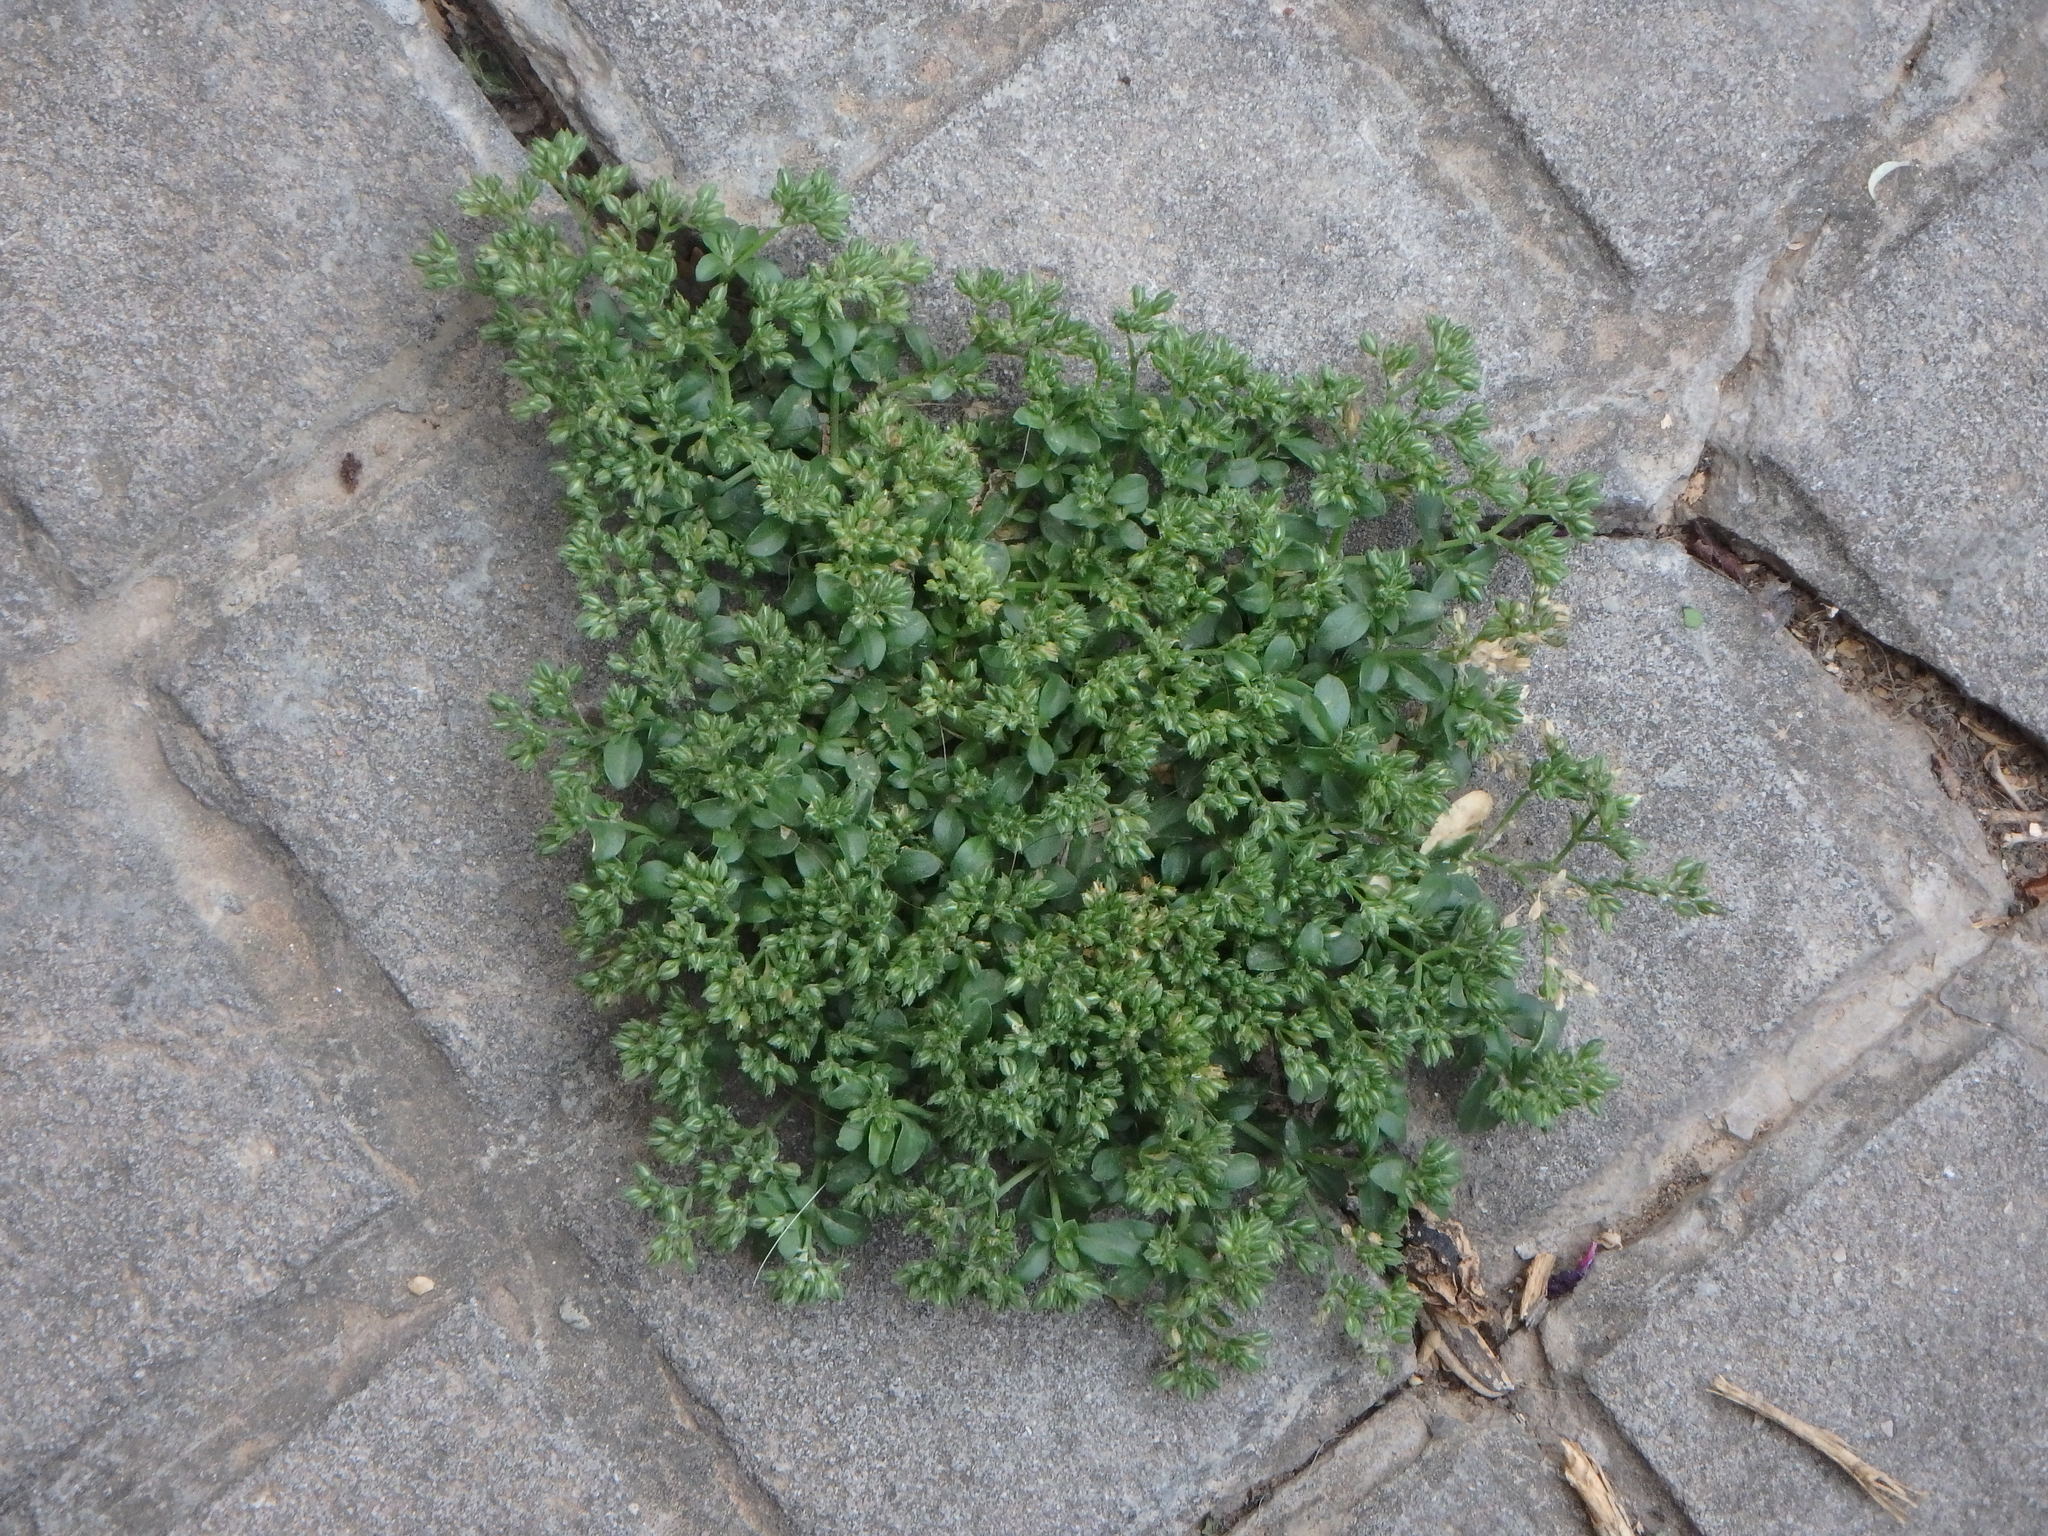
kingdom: Plantae
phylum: Tracheophyta
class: Magnoliopsida
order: Caryophyllales
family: Caryophyllaceae
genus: Polycarpon
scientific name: Polycarpon tetraphyllum
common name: Four-leaved all-seed
